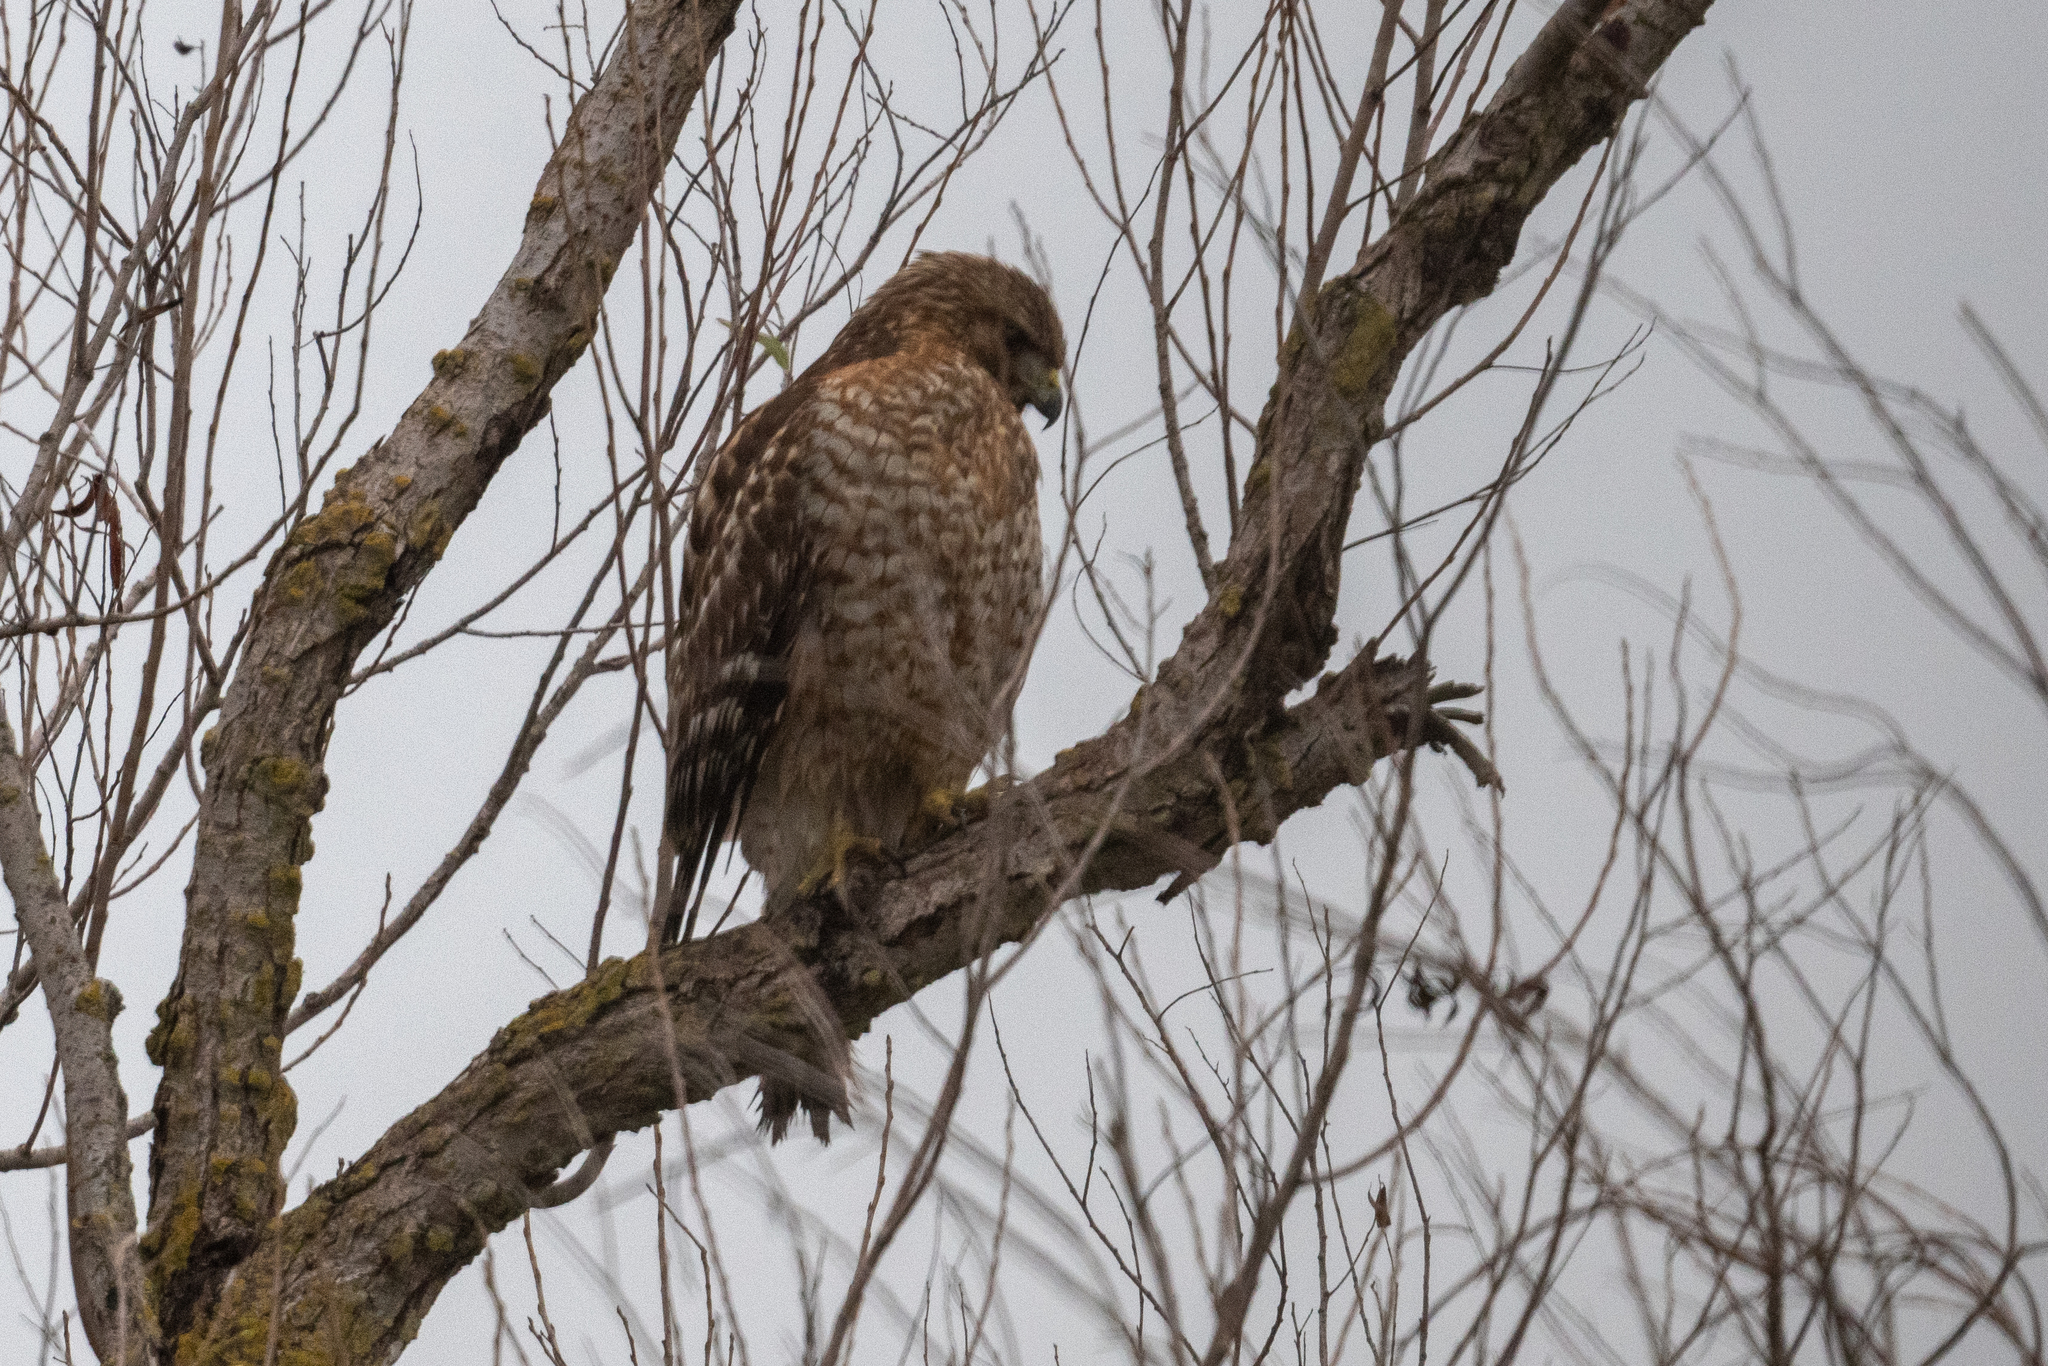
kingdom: Animalia
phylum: Chordata
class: Aves
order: Accipitriformes
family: Accipitridae
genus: Buteo
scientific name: Buteo lineatus
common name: Red-shouldered hawk
